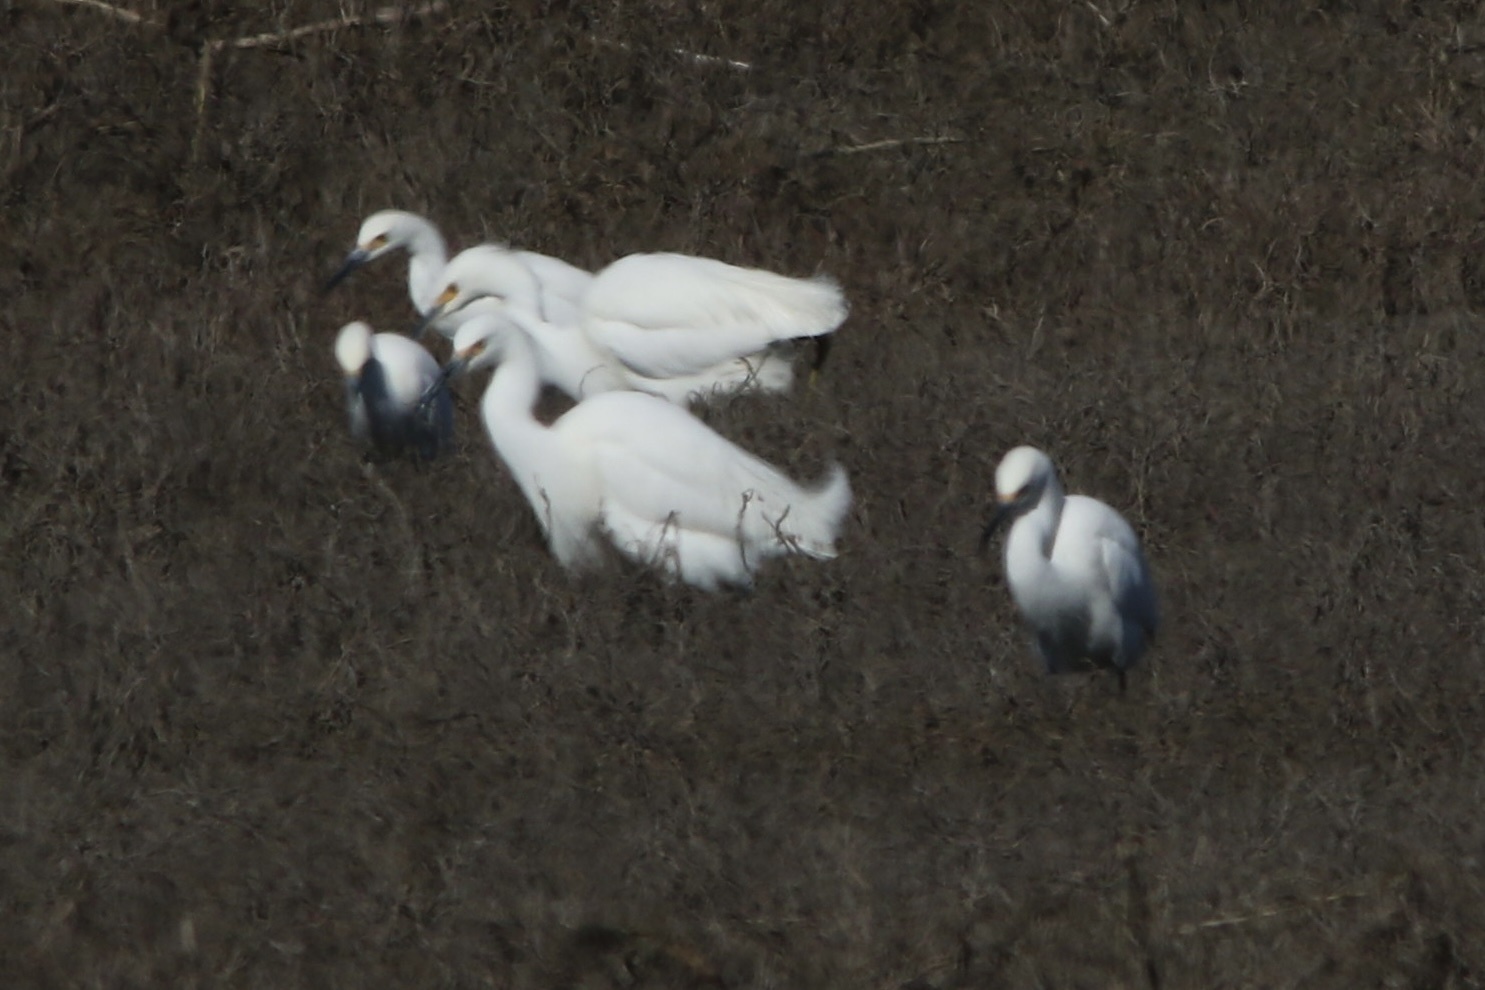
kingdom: Animalia
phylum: Chordata
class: Aves
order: Pelecaniformes
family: Ardeidae
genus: Egretta
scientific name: Egretta thula
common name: Snowy egret
